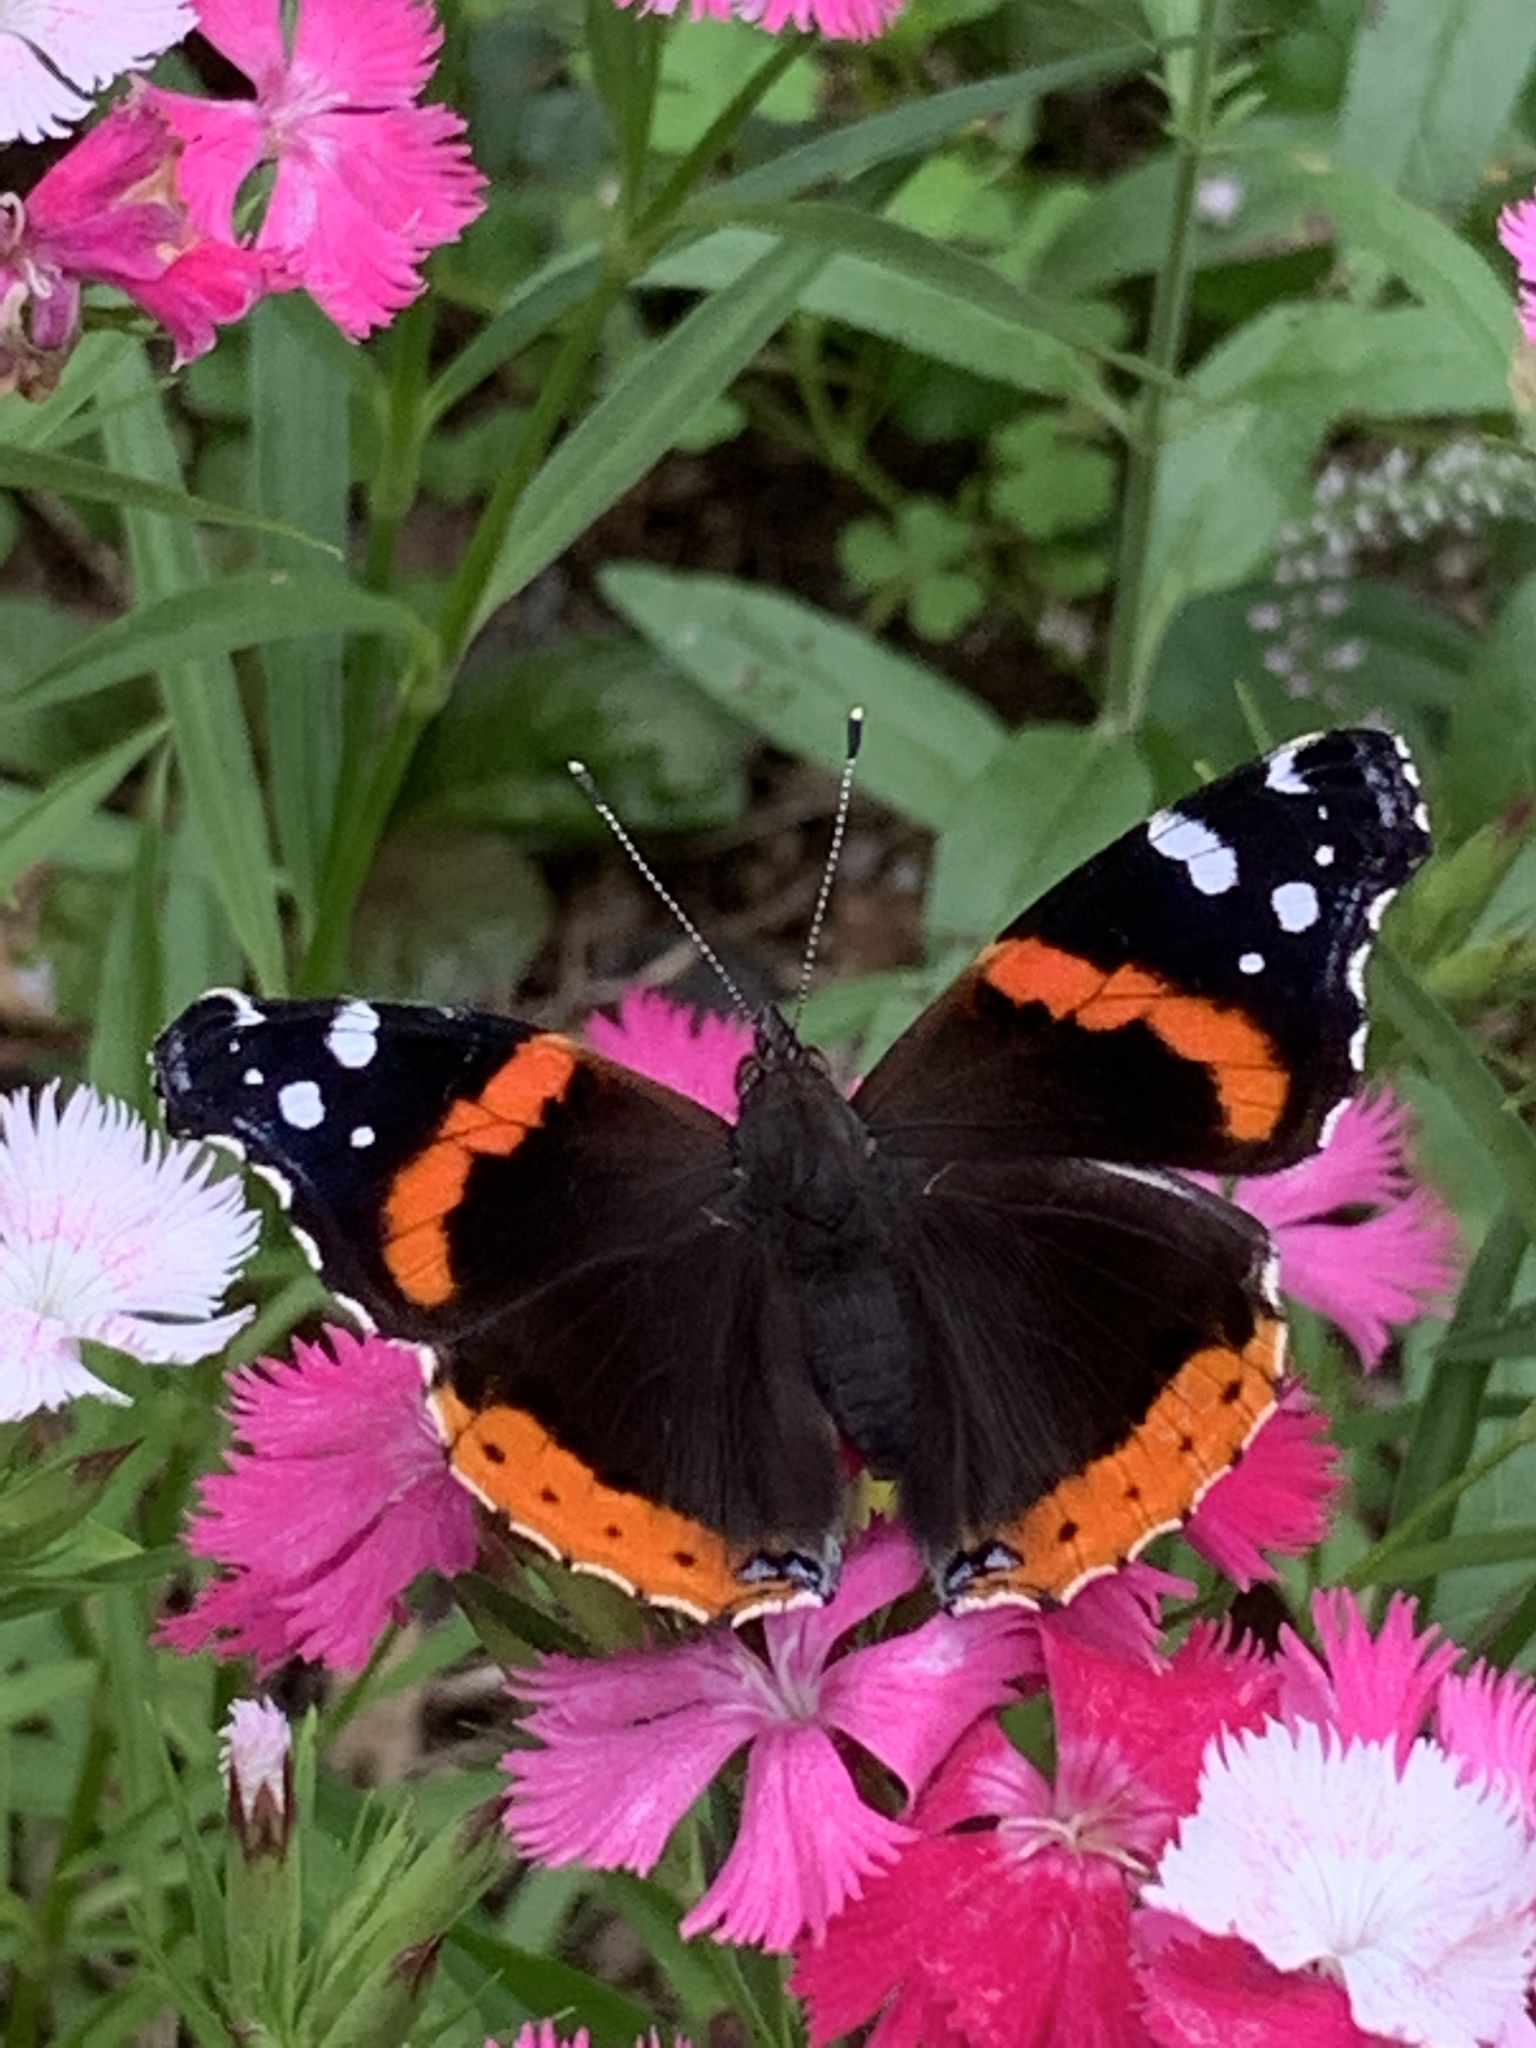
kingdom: Animalia
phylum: Arthropoda
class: Insecta
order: Lepidoptera
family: Nymphalidae
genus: Vanessa
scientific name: Vanessa atalanta
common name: Red admiral
